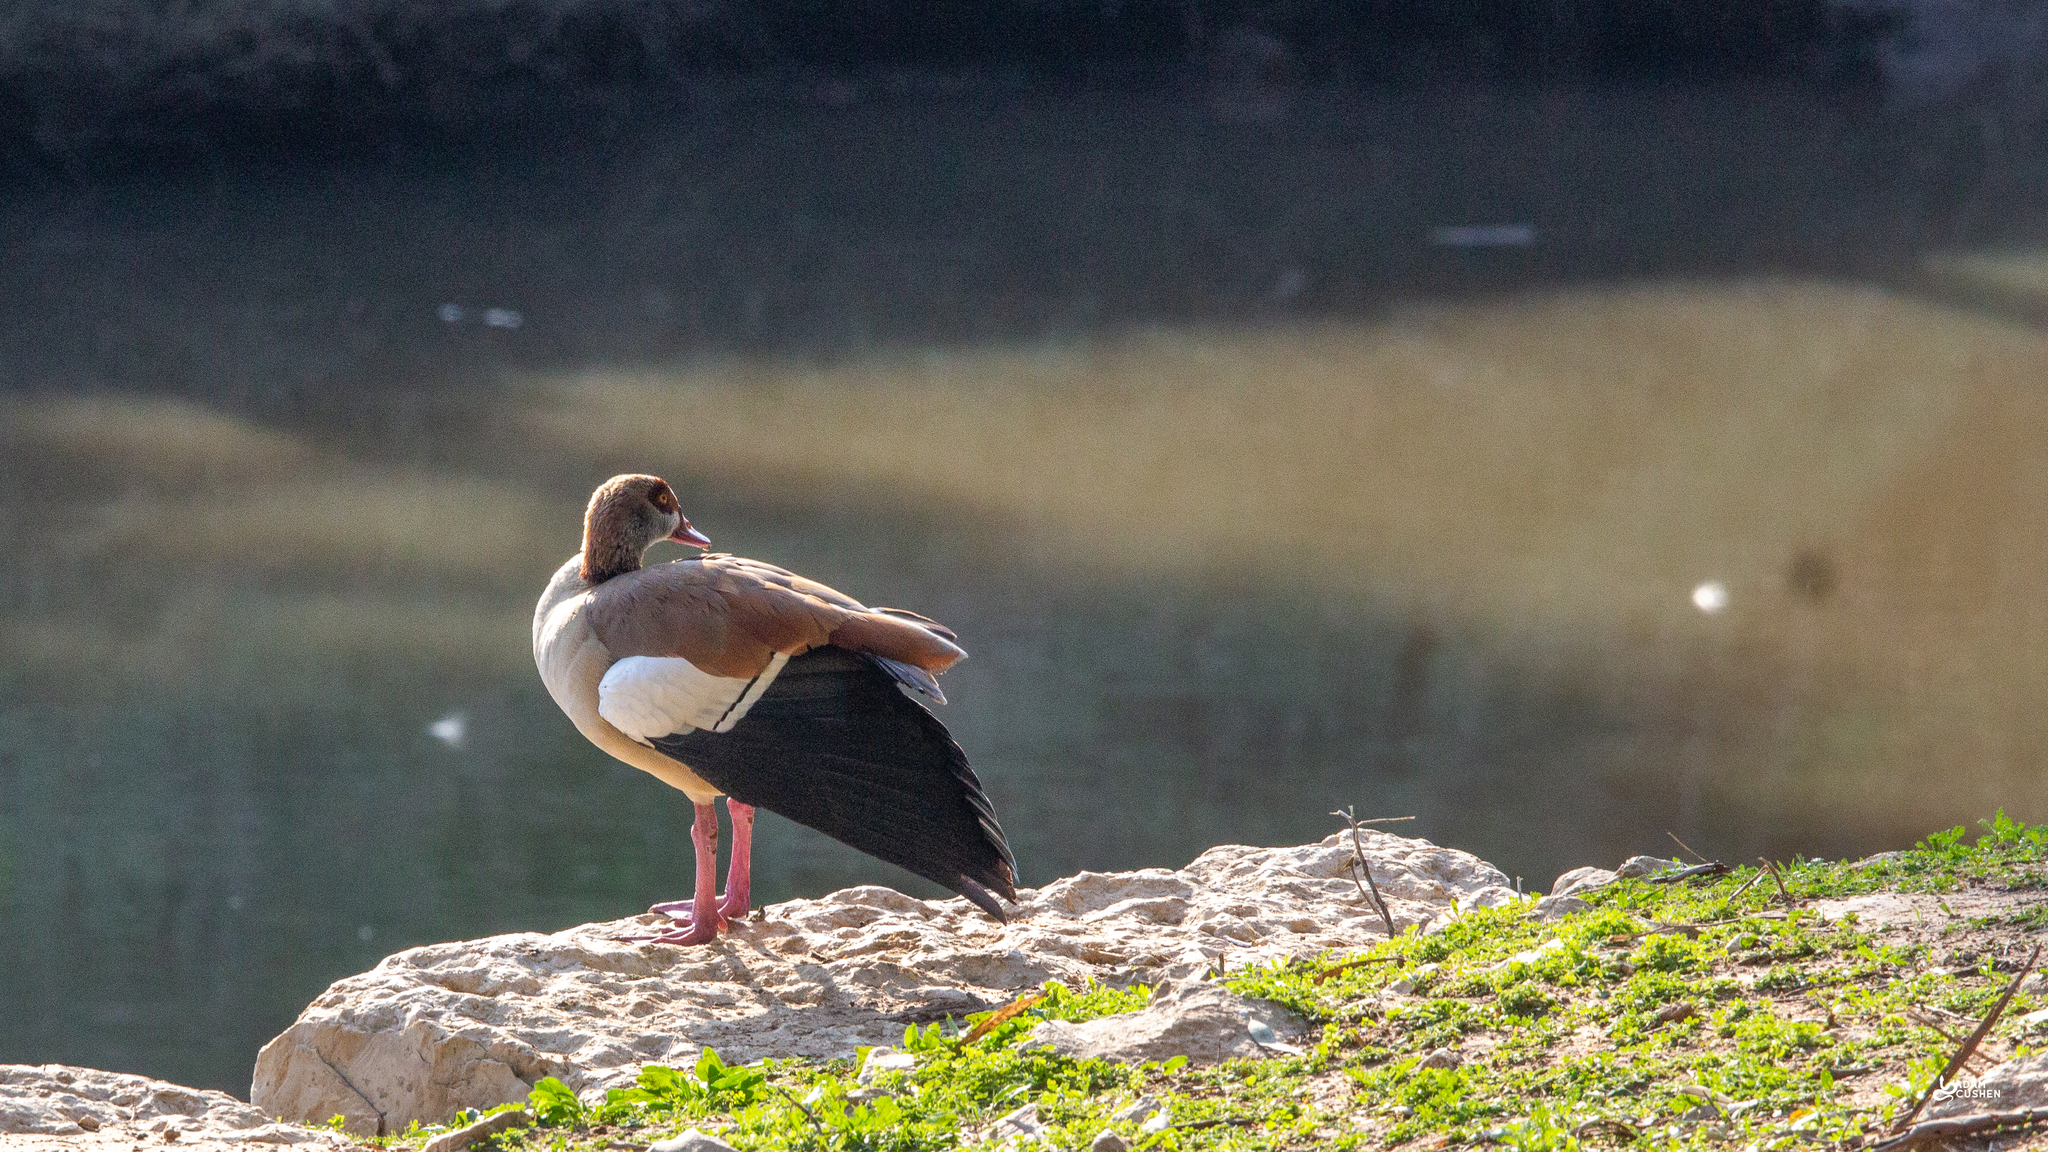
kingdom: Animalia
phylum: Chordata
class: Aves
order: Anseriformes
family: Anatidae
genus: Alopochen
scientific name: Alopochen aegyptiaca
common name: Egyptian goose
